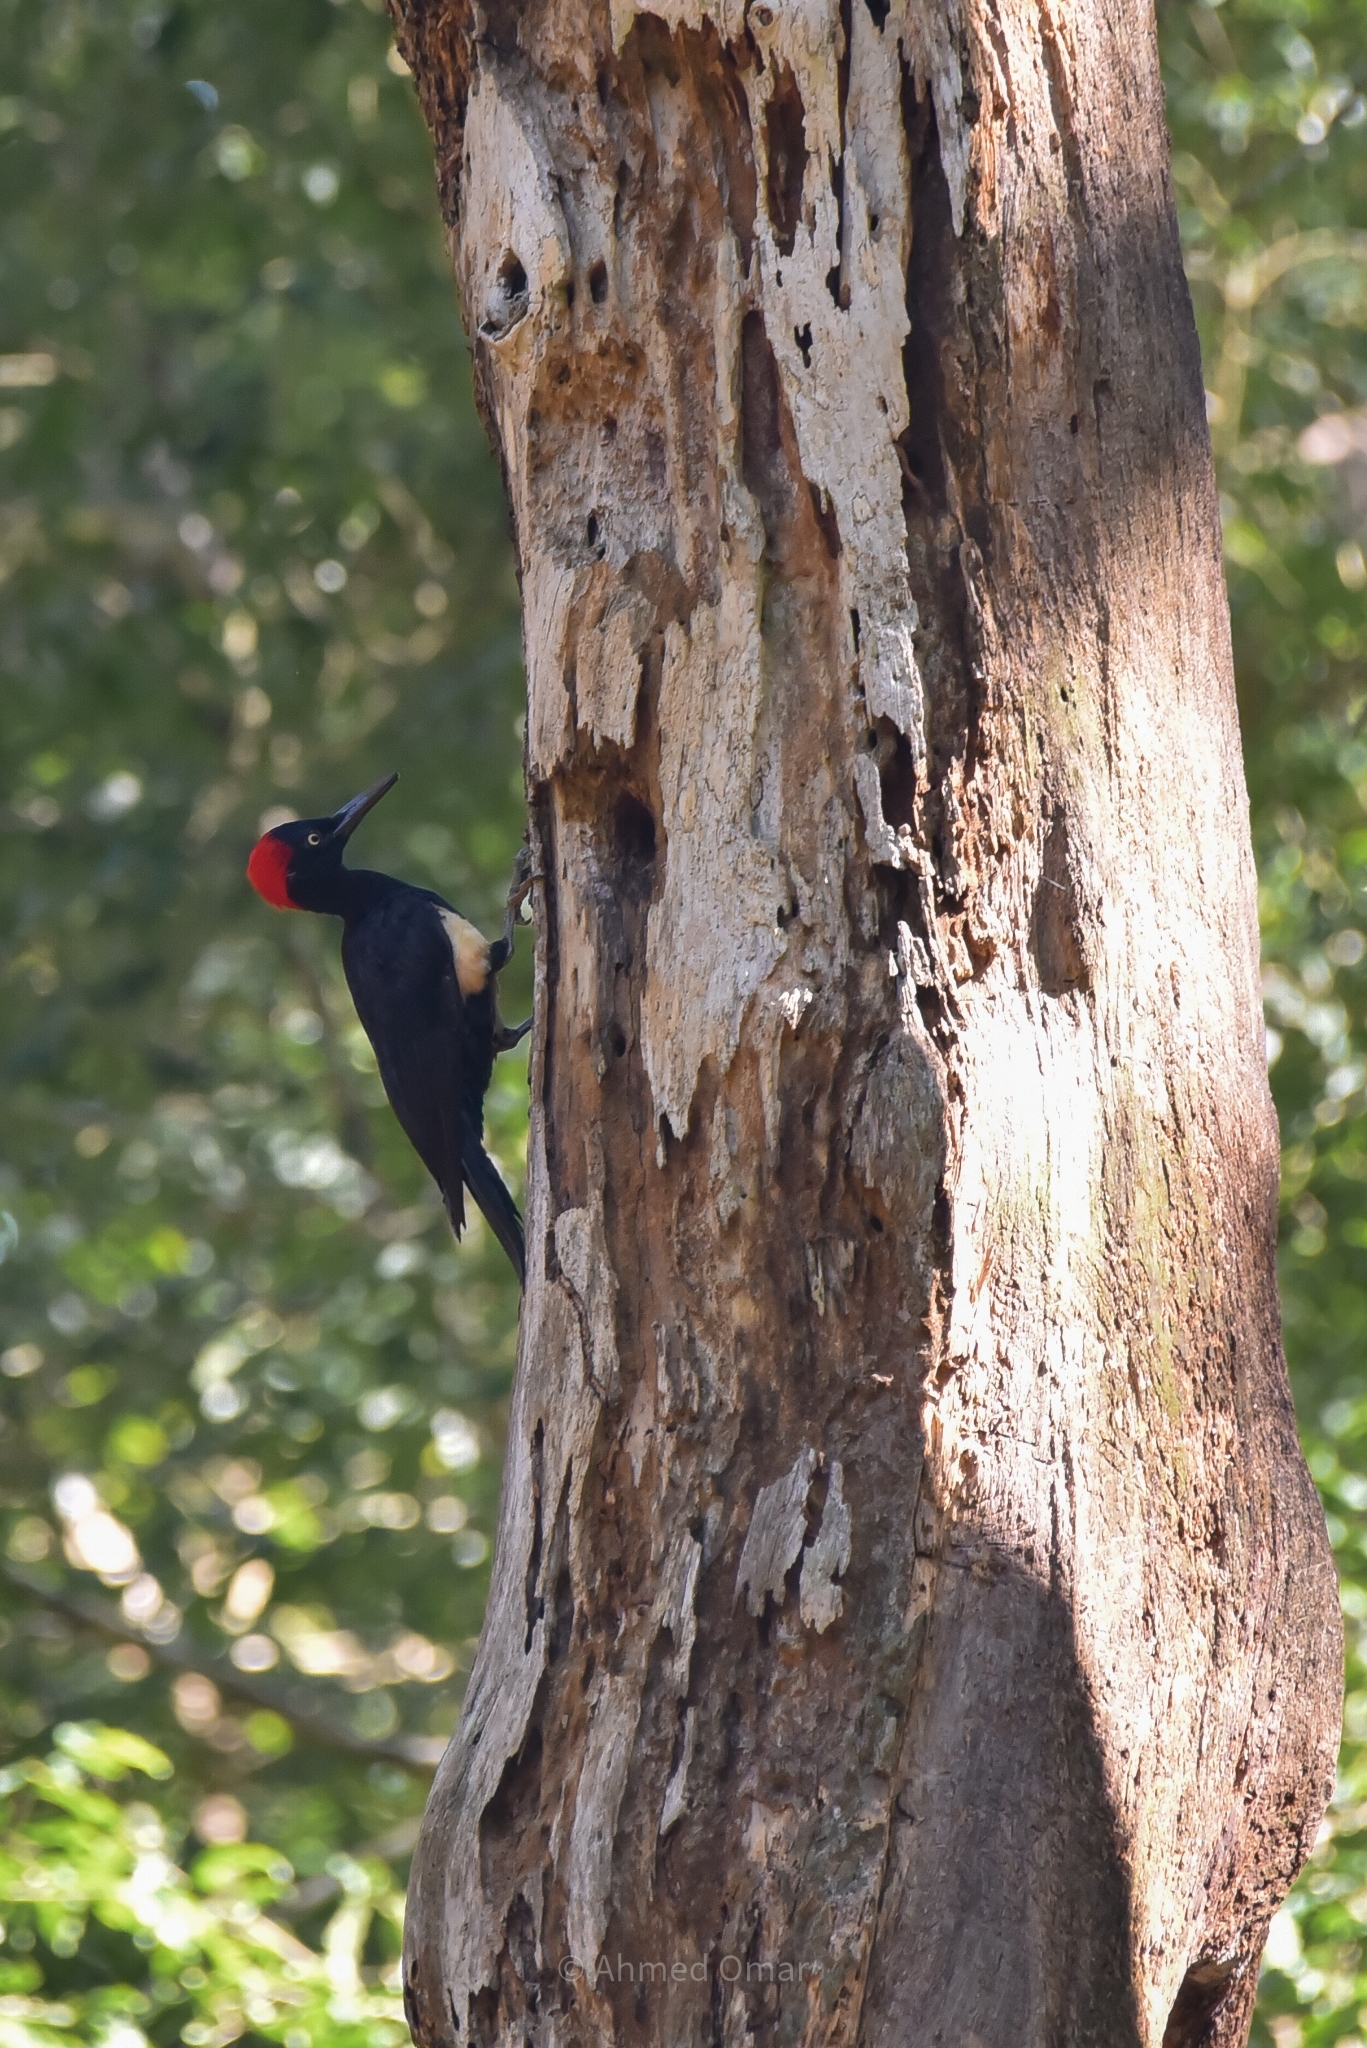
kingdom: Animalia
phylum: Chordata
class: Aves
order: Piciformes
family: Picidae
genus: Dryocopus
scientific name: Dryocopus javensis
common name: White-bellied woodpecker
